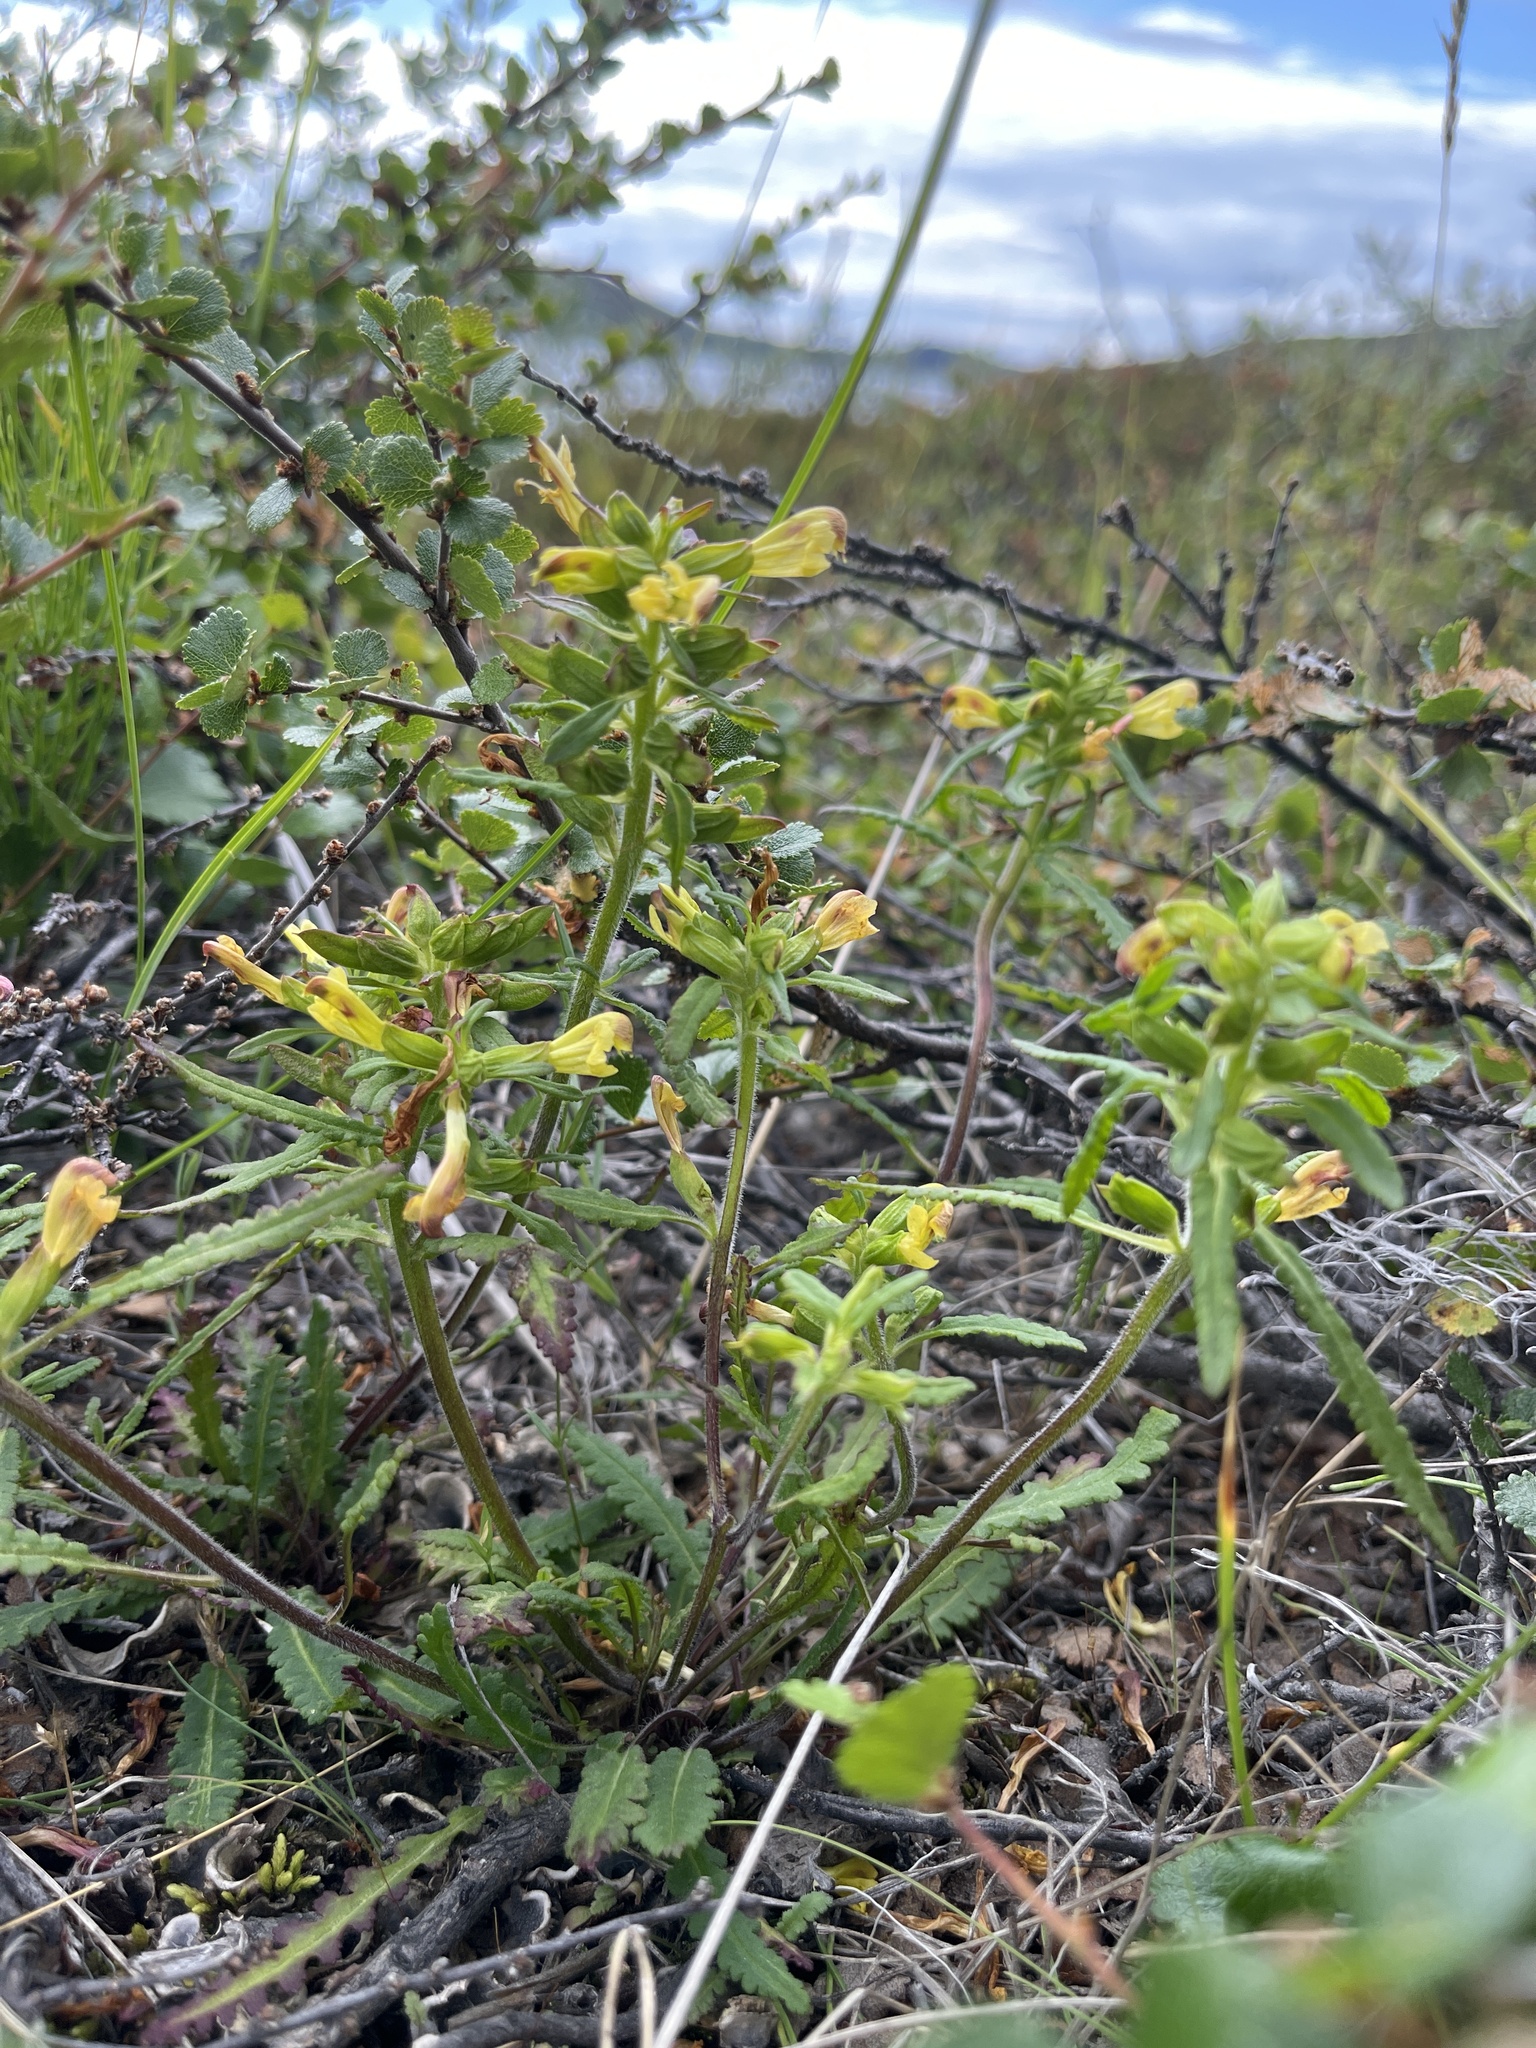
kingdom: Plantae
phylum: Tracheophyta
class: Magnoliopsida
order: Lamiales
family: Orobanchaceae
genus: Pedicularis
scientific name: Pedicularis labradorica
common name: Labrador lousewort
